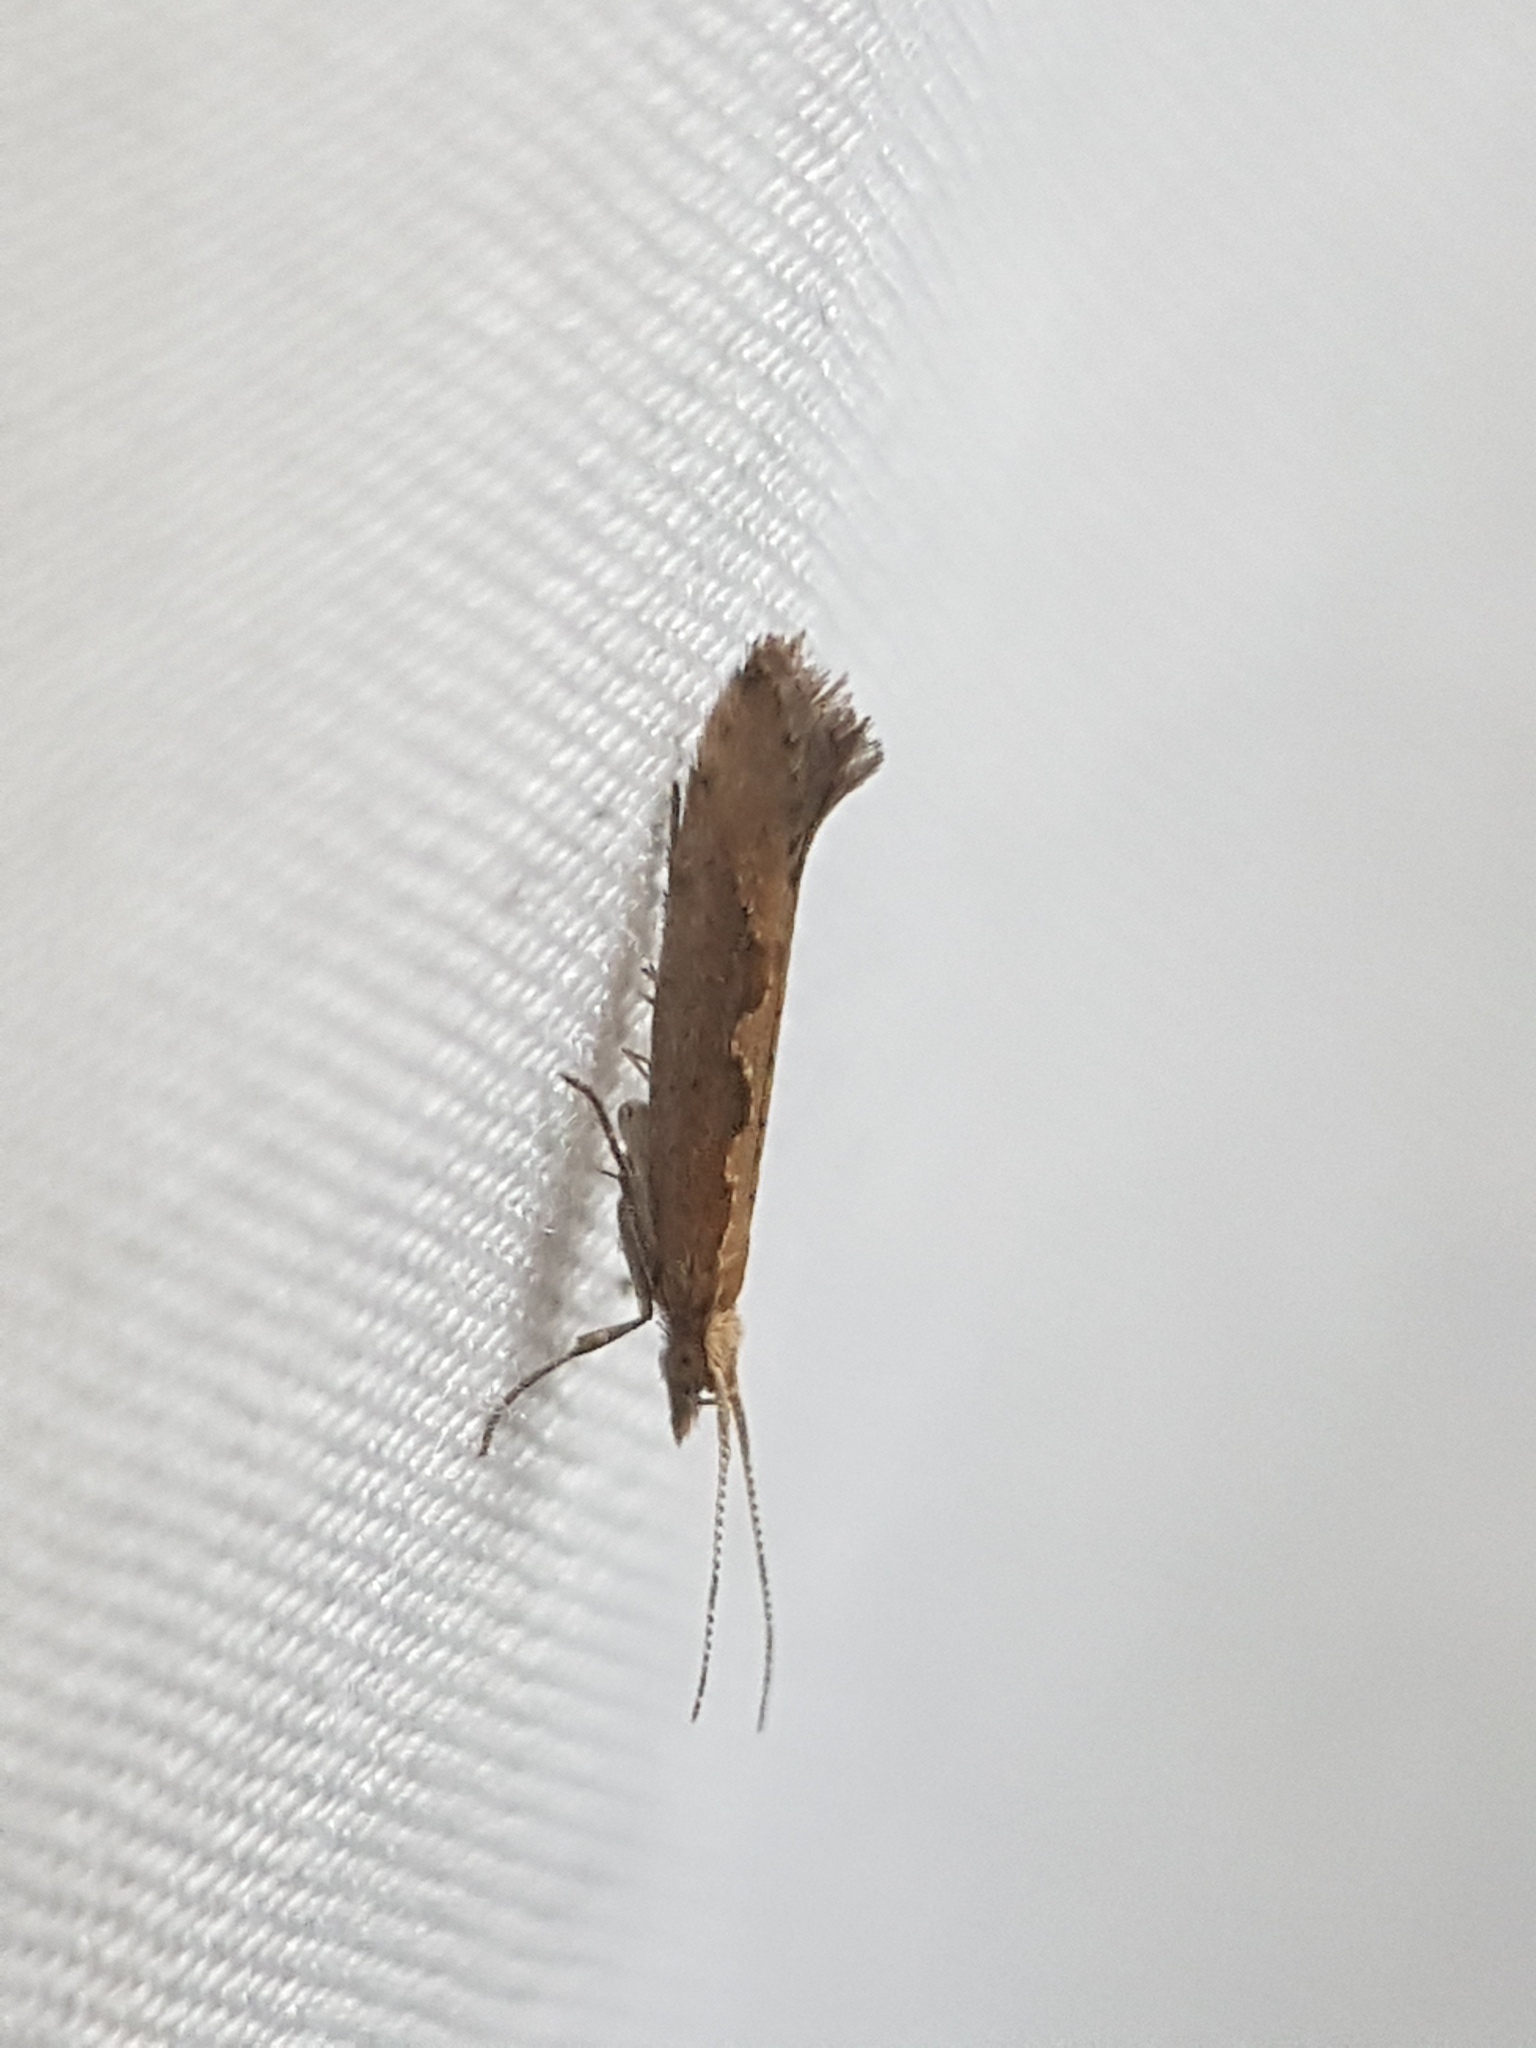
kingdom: Animalia
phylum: Arthropoda
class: Insecta
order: Lepidoptera
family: Plutellidae
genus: Plutella
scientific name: Plutella xylostella
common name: Diamond-back moth
